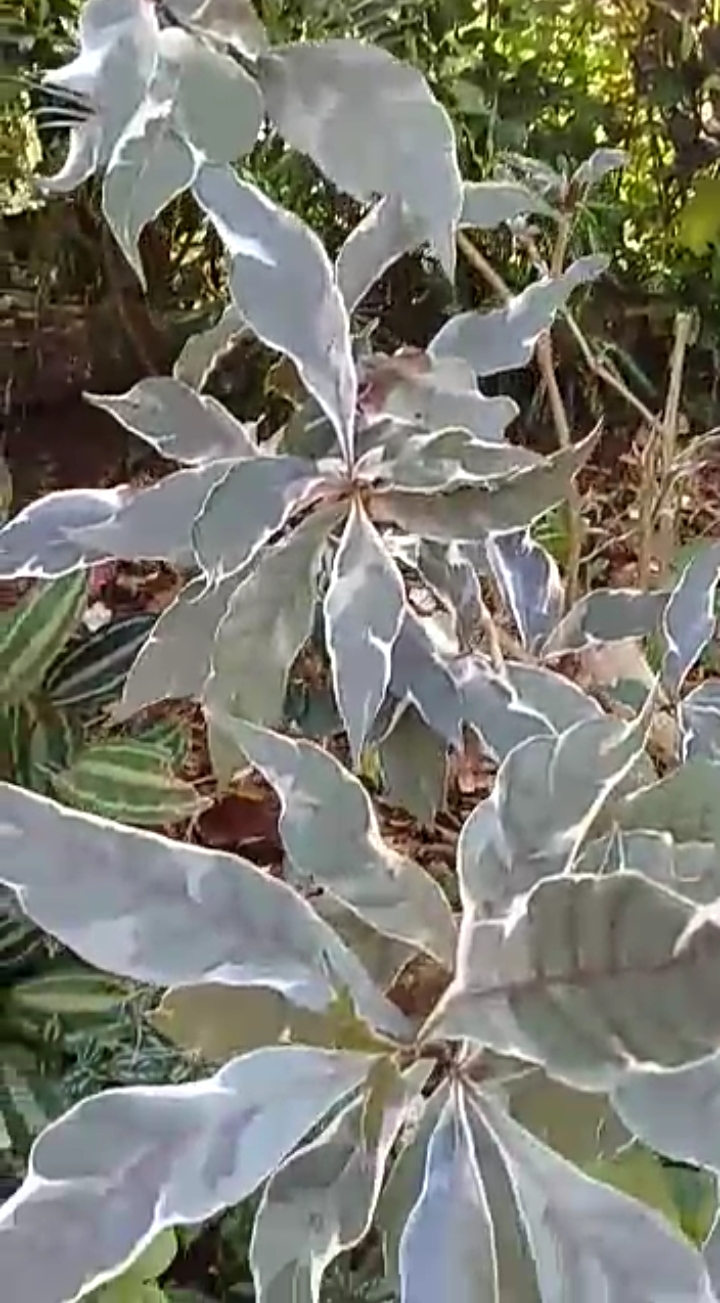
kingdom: Plantae
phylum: Tracheophyta
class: Magnoliopsida
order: Lamiales
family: Acanthaceae
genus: Graptophyllum
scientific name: Graptophyllum pictum
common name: Caricature-plant
